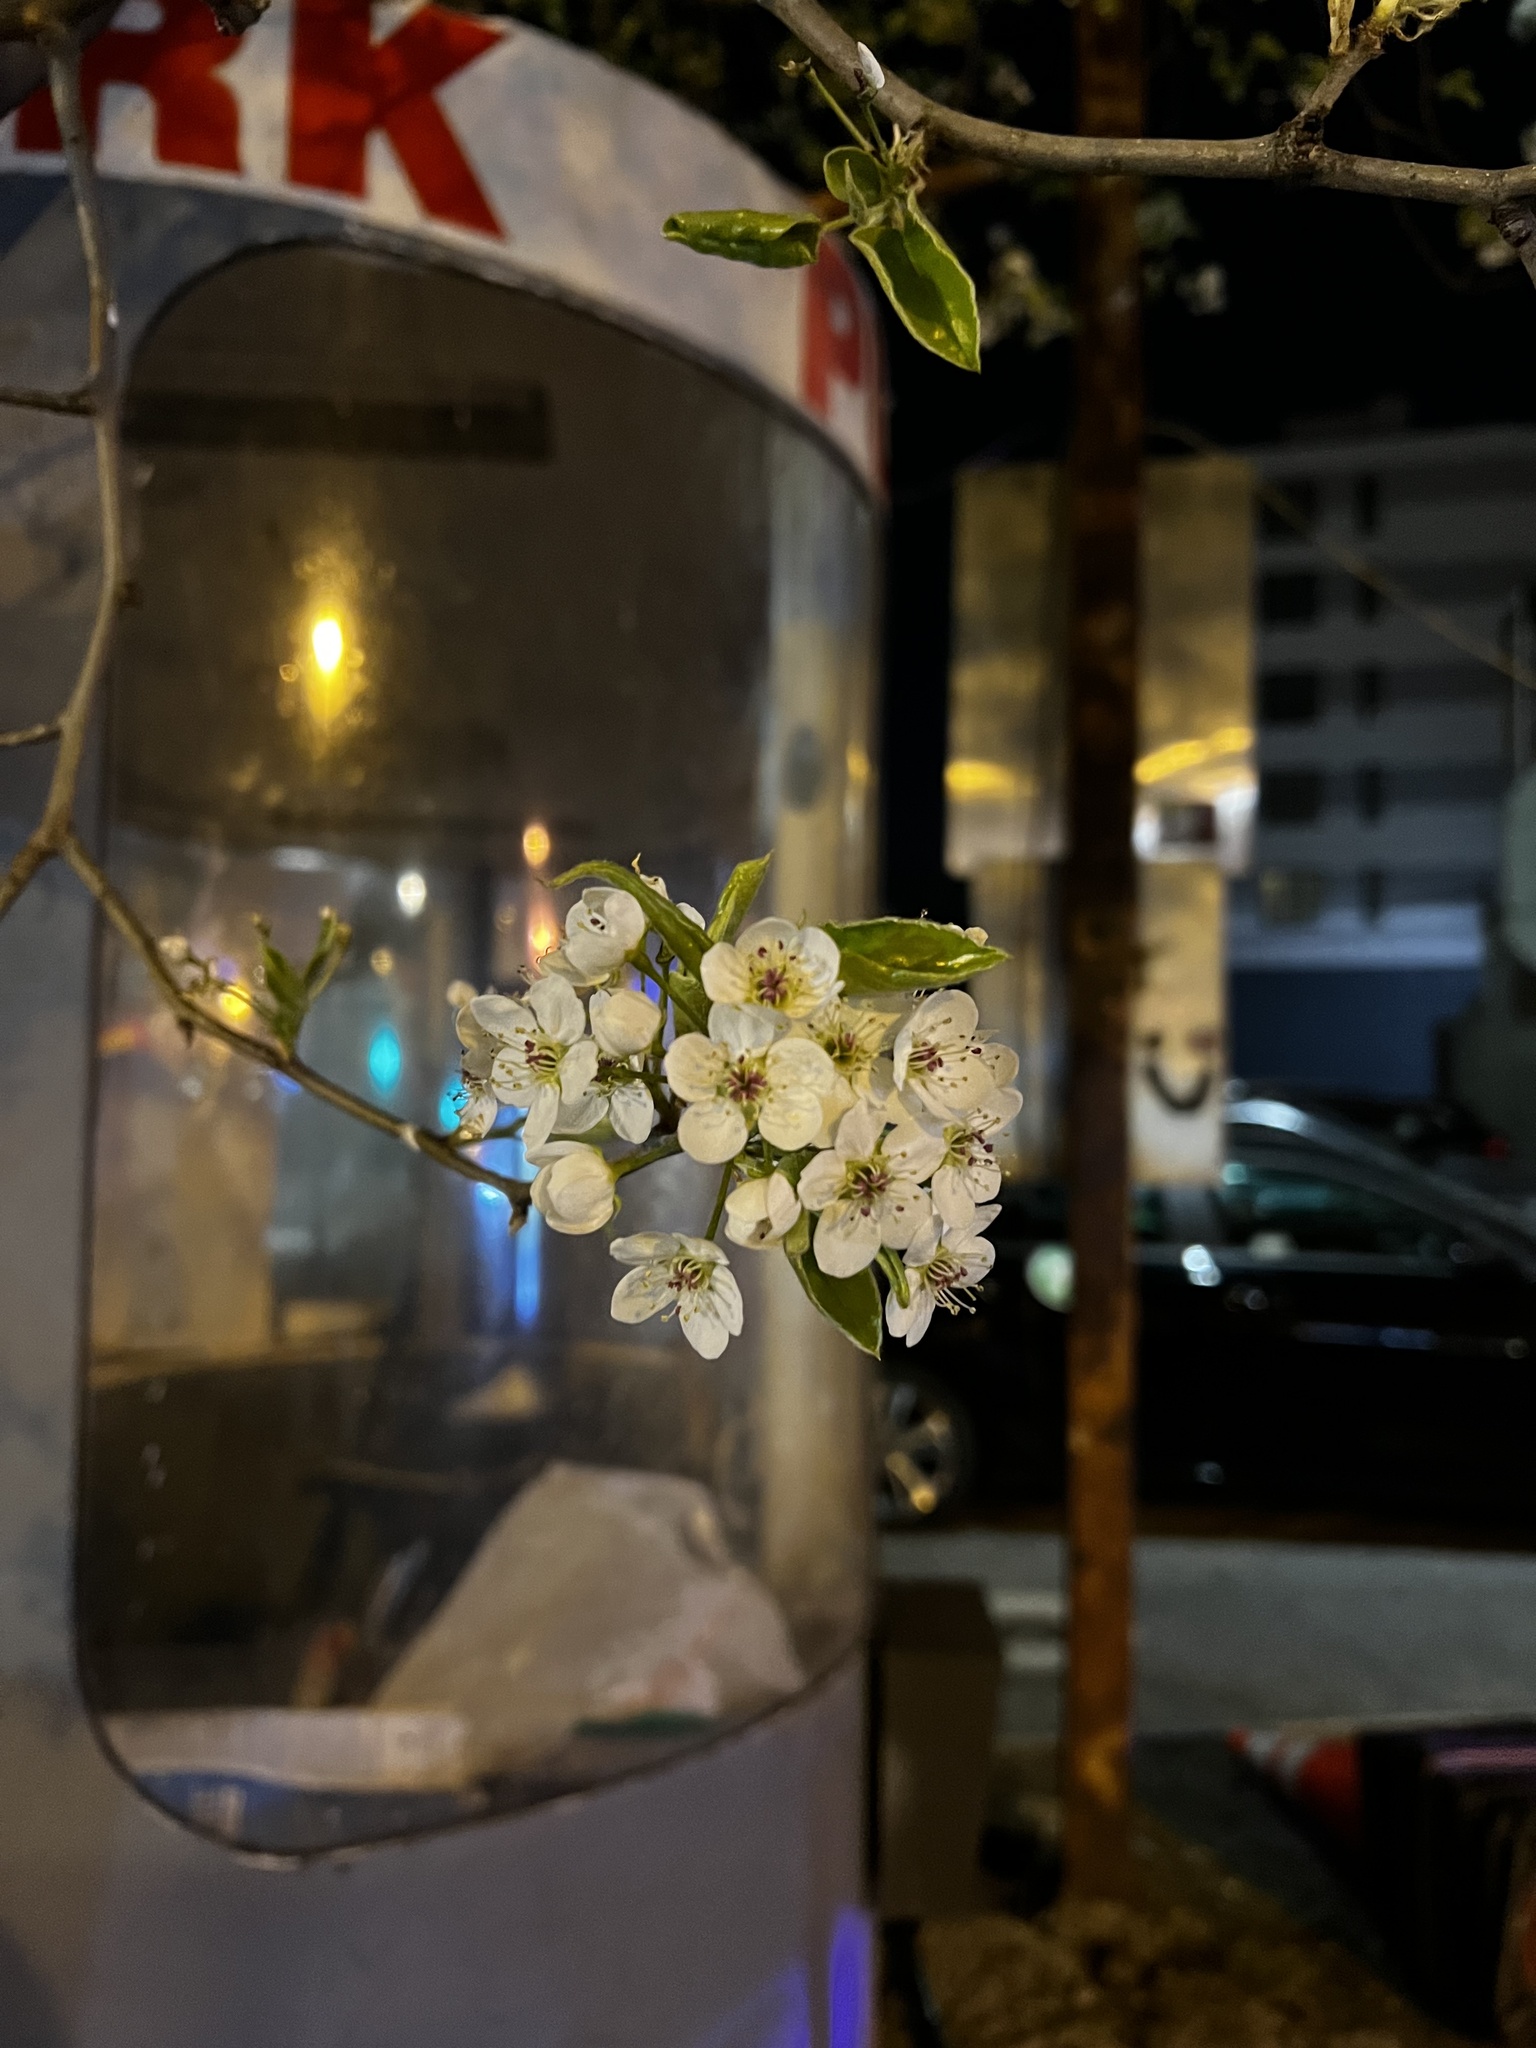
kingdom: Plantae
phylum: Tracheophyta
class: Magnoliopsida
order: Rosales
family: Rosaceae
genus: Pyrus
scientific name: Pyrus calleryana
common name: Callery pear
